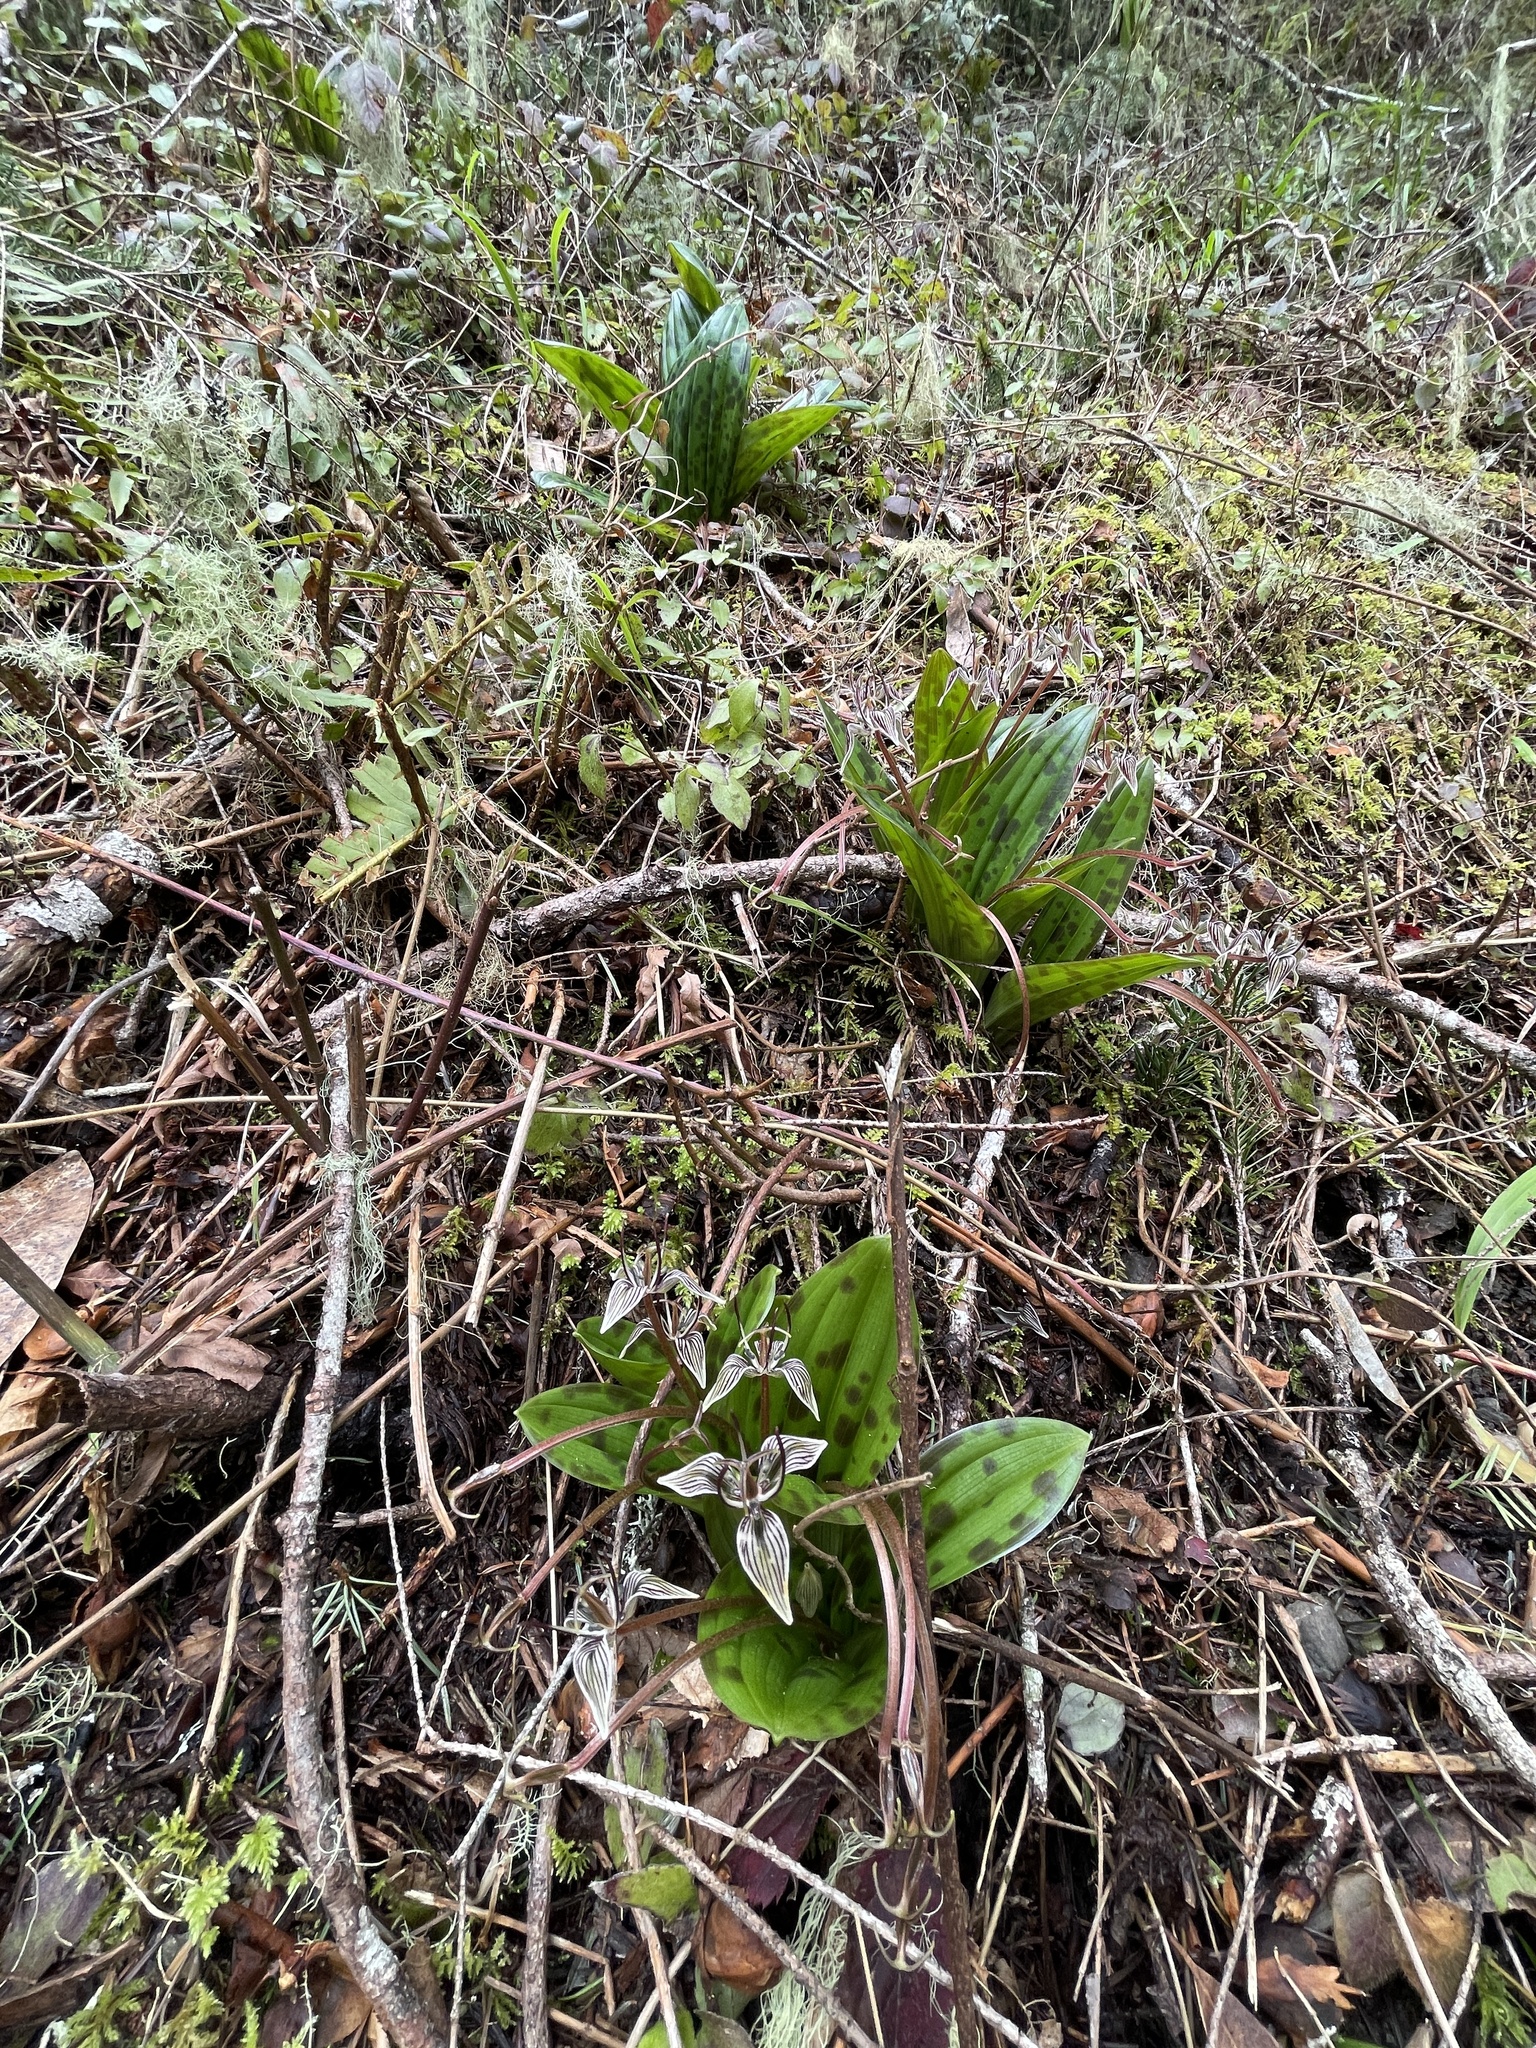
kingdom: Plantae
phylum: Tracheophyta
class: Liliopsida
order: Liliales
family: Liliaceae
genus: Scoliopus
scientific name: Scoliopus bigelovii
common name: Foetid adder's-tongue
